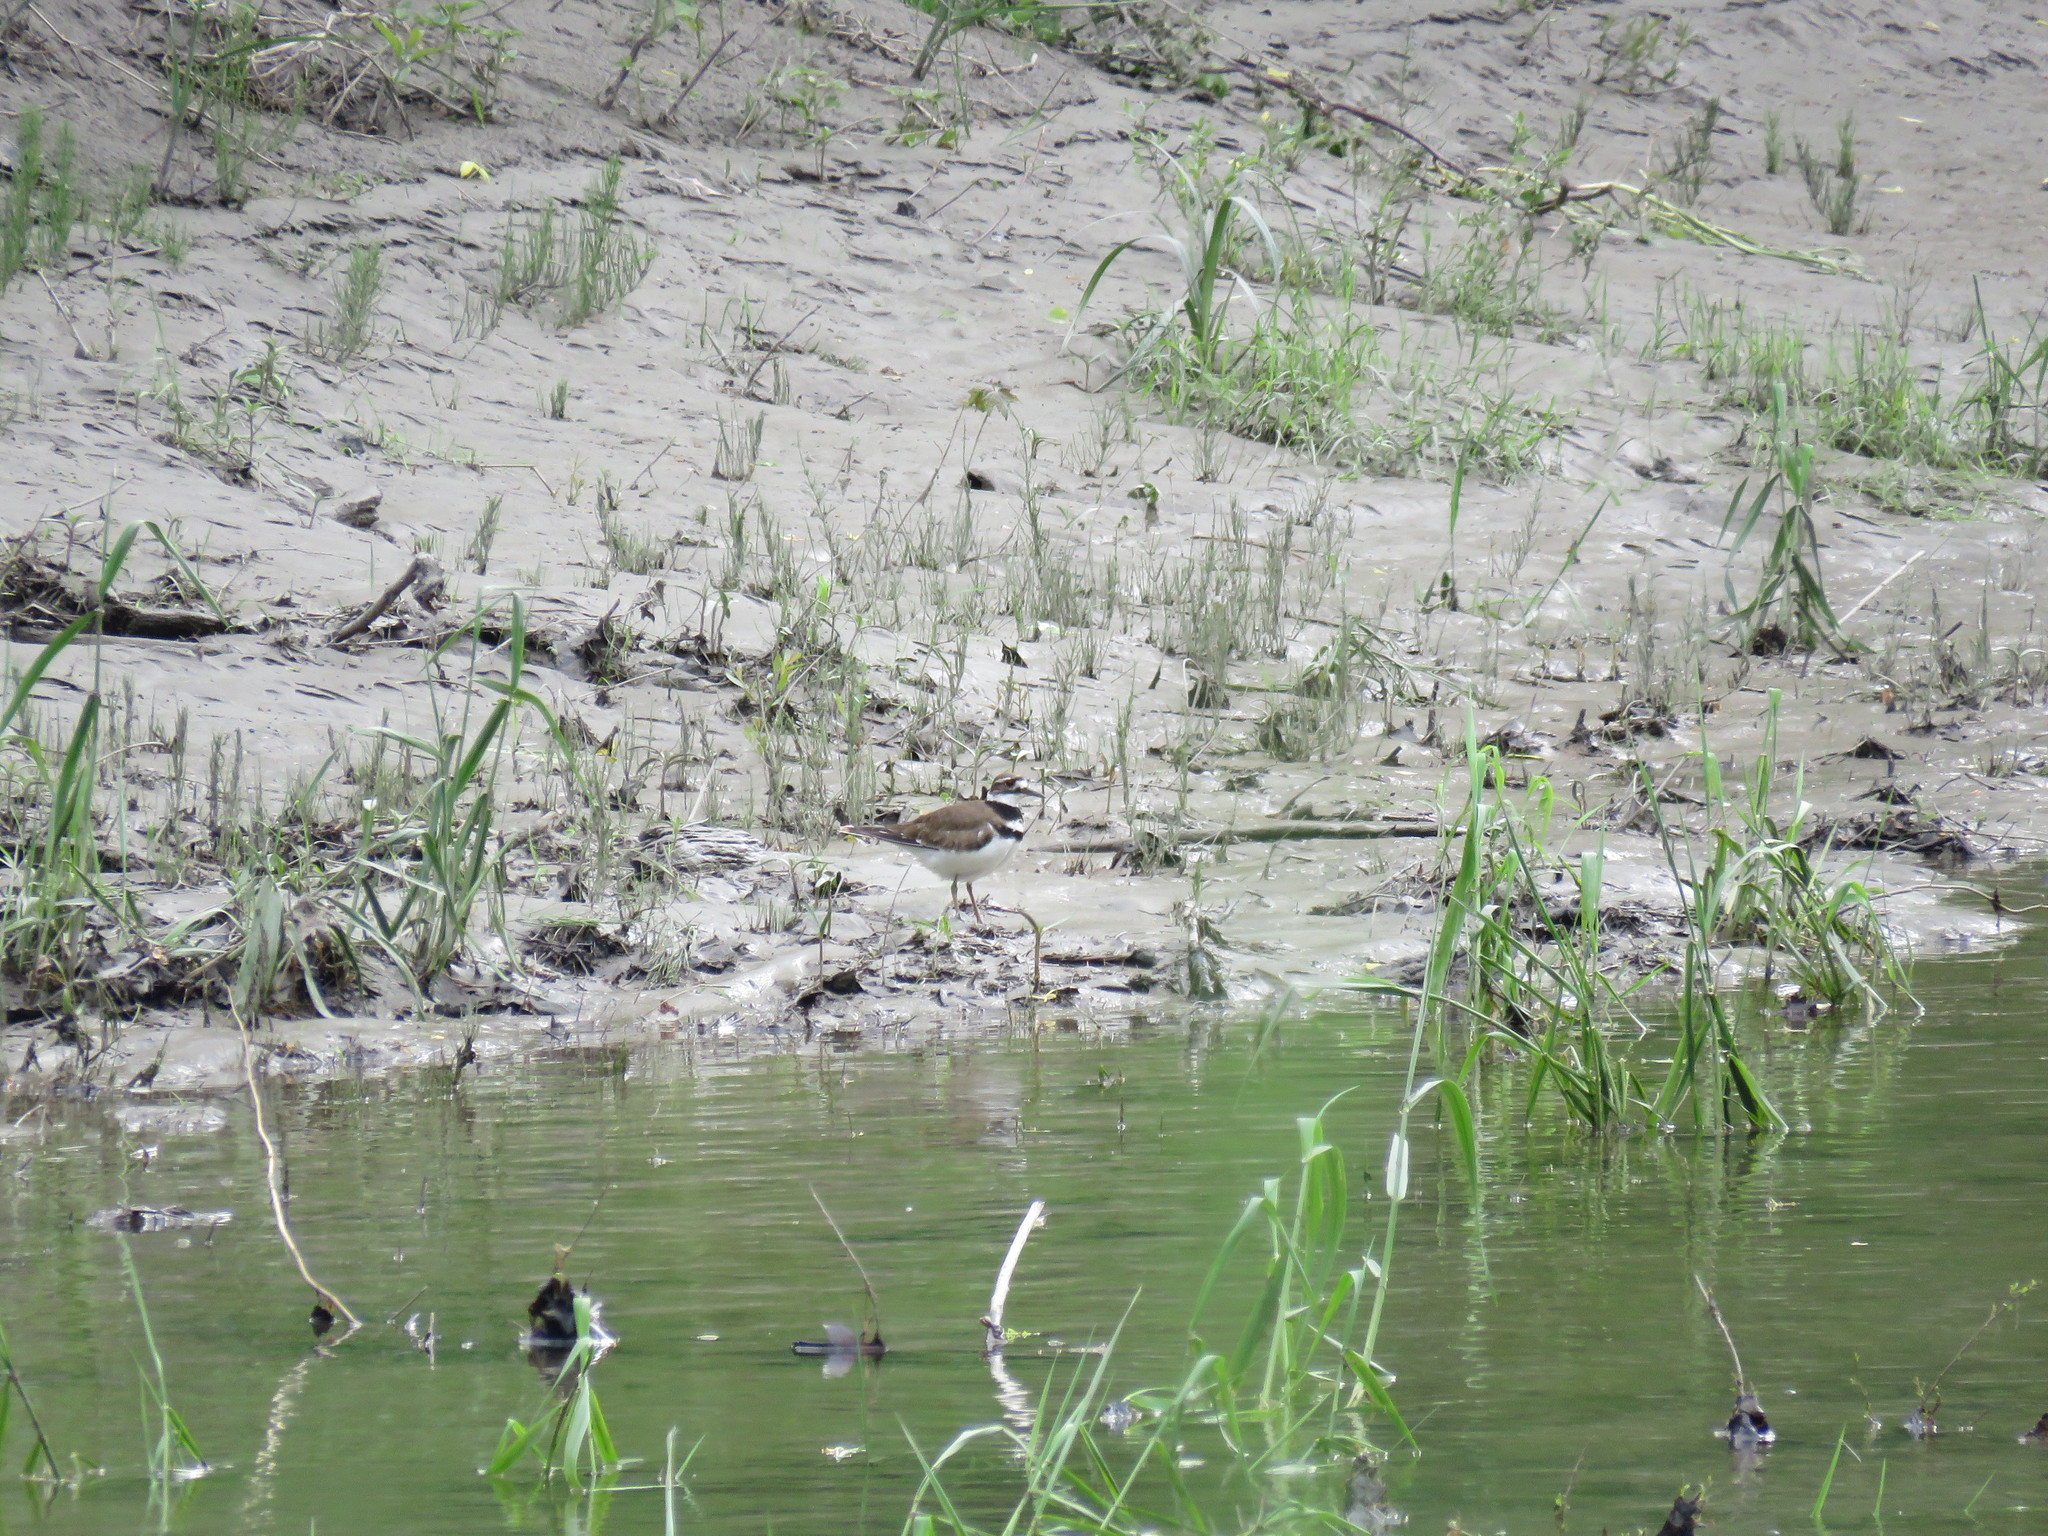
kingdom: Animalia
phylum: Chordata
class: Aves
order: Charadriiformes
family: Charadriidae
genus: Charadrius
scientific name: Charadrius vociferus
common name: Killdeer
